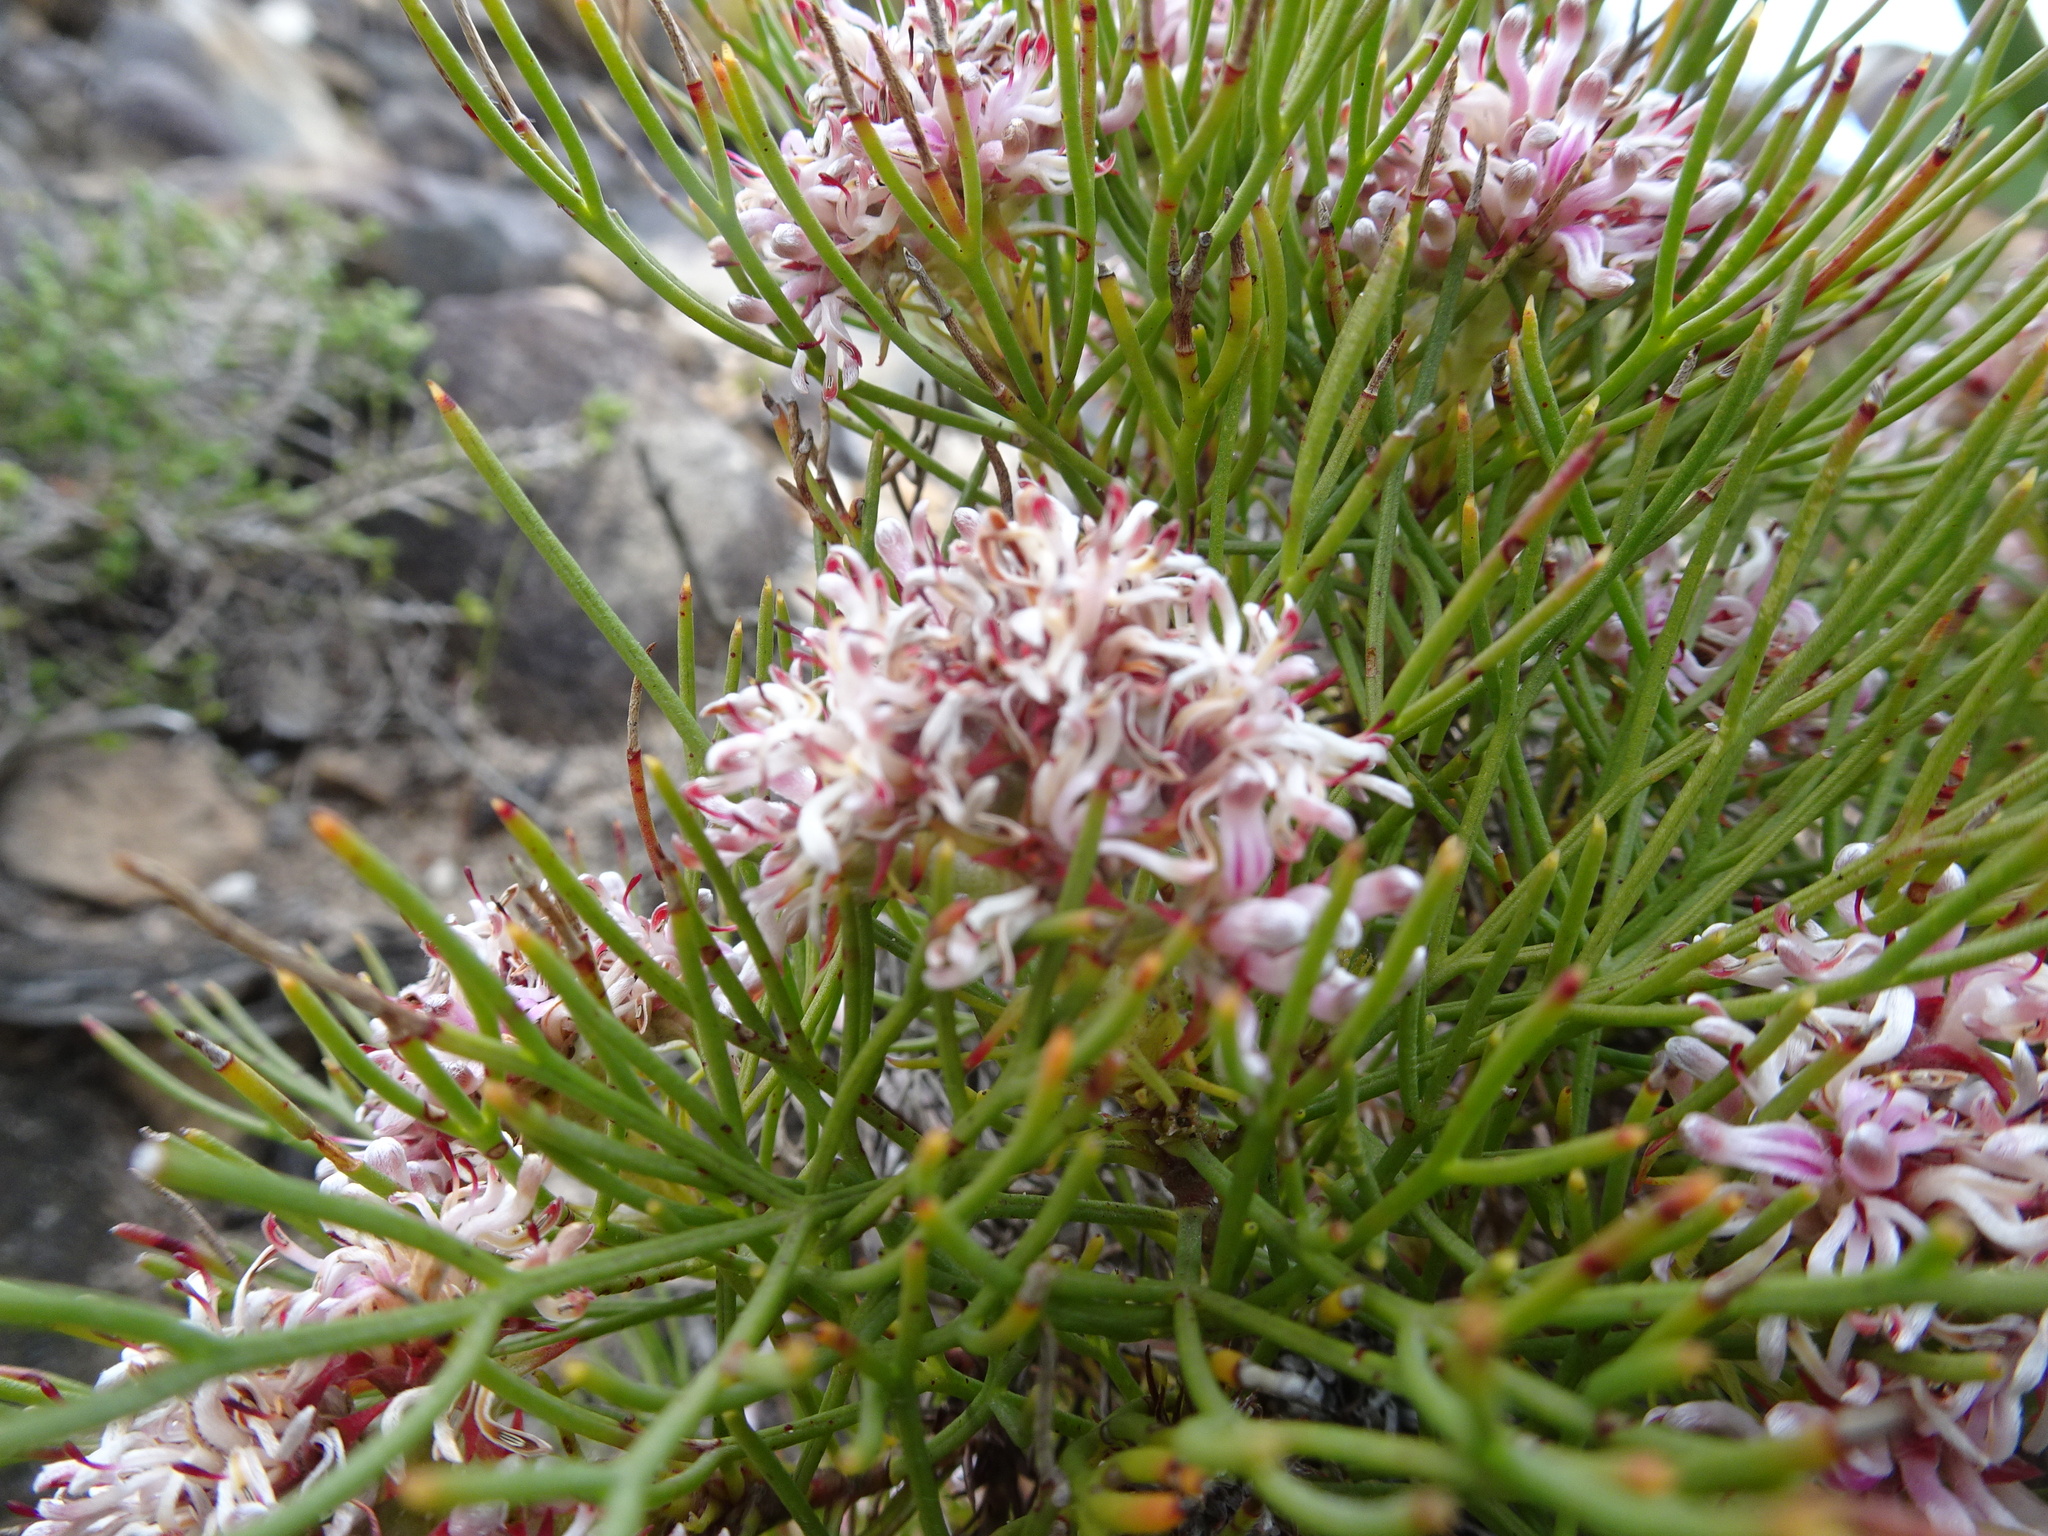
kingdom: Plantae
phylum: Tracheophyta
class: Magnoliopsida
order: Proteales
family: Proteaceae
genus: Serruria
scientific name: Serruria ascendens
